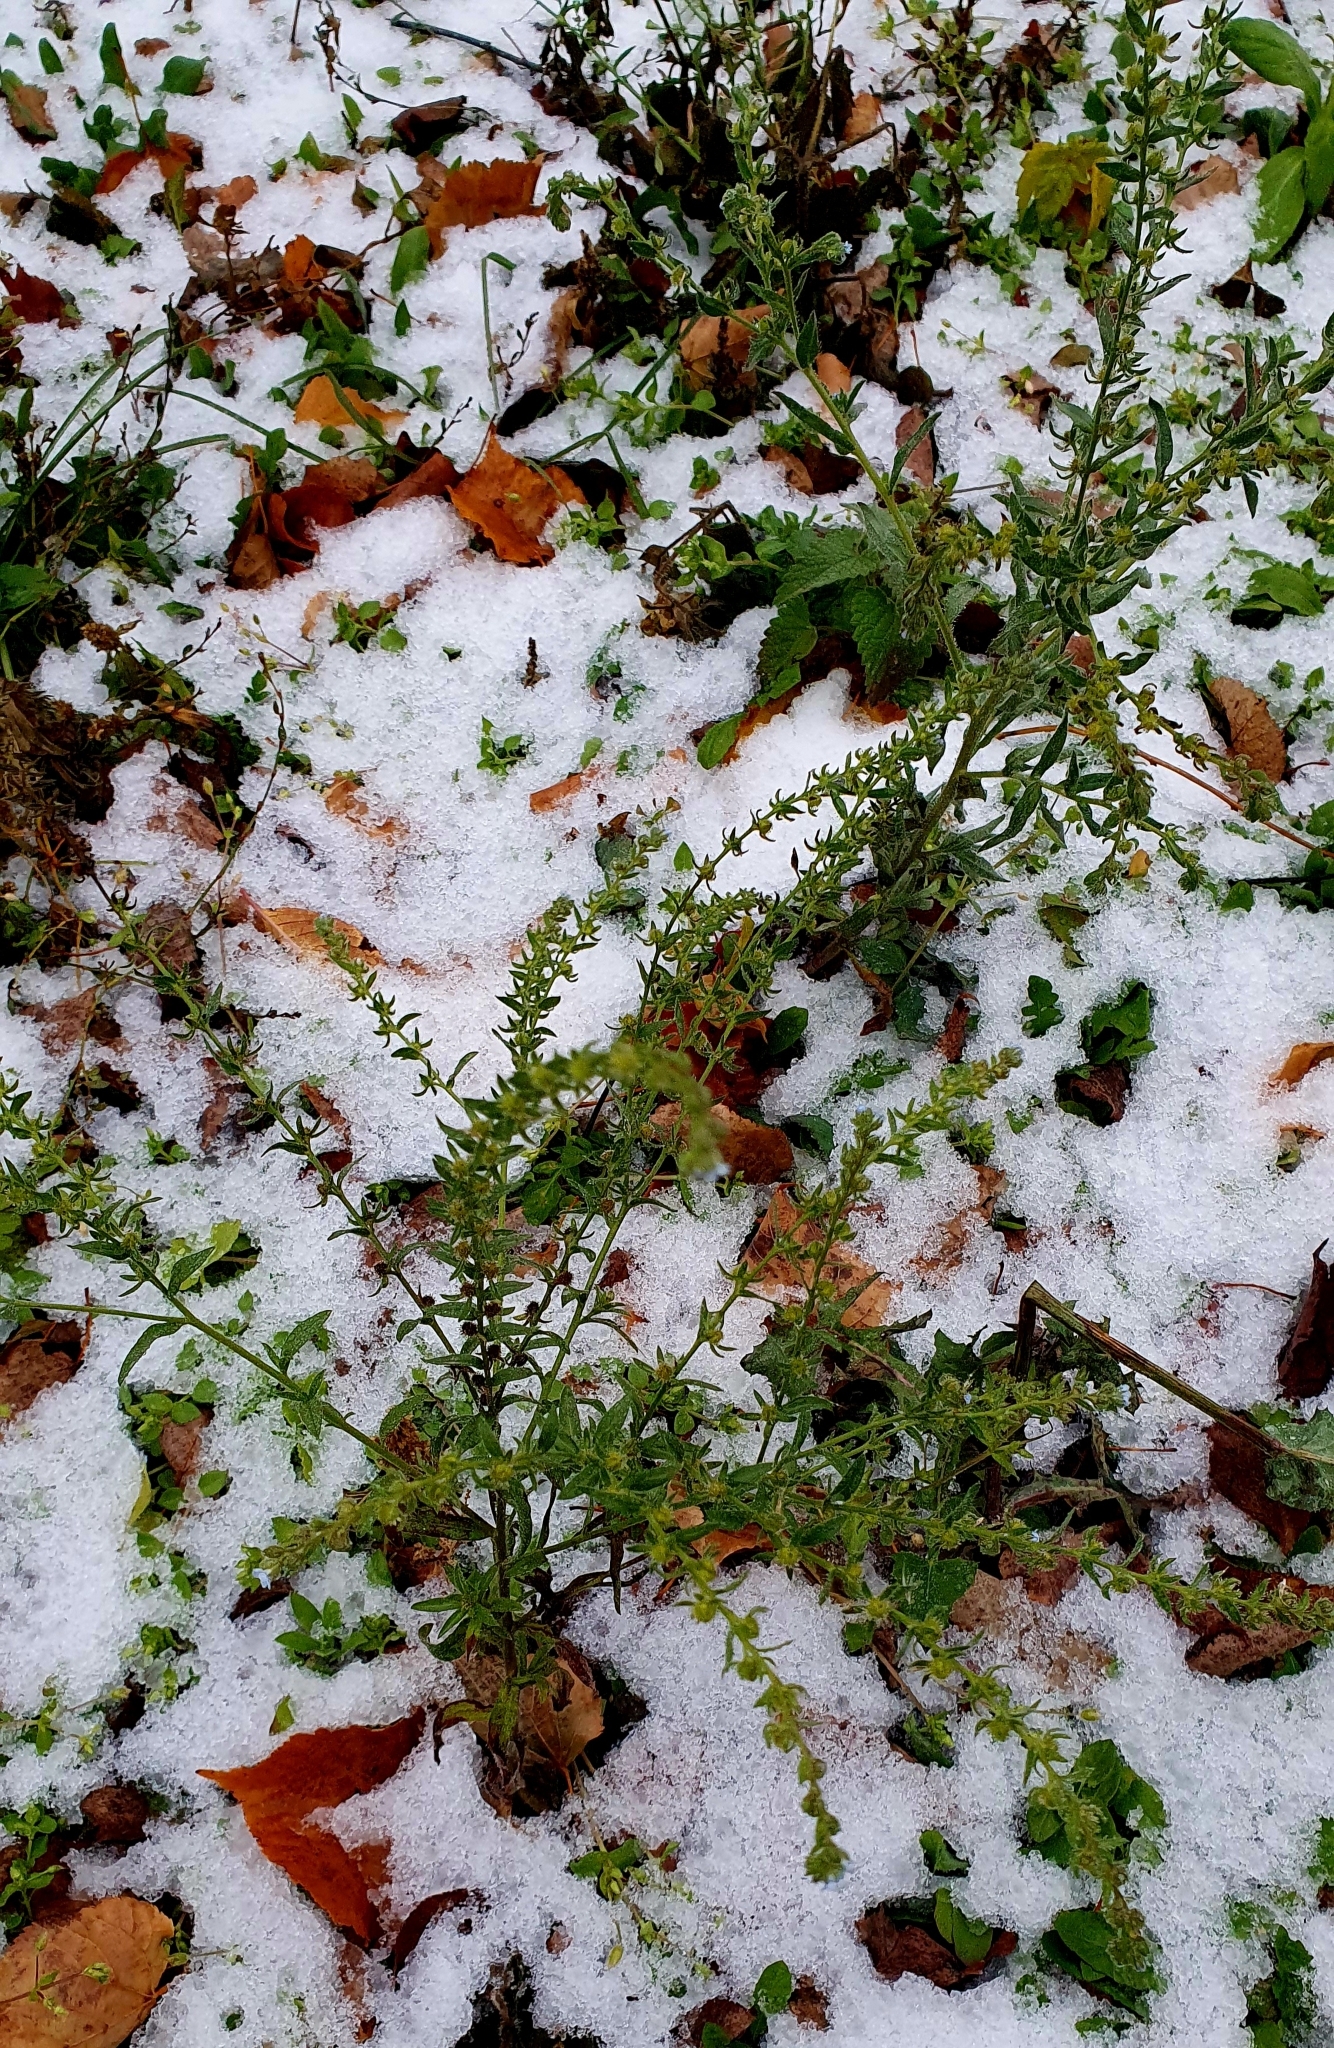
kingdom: Plantae
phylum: Tracheophyta
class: Magnoliopsida
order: Boraginales
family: Boraginaceae
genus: Lappula
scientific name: Lappula squarrosa
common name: European stickseed
